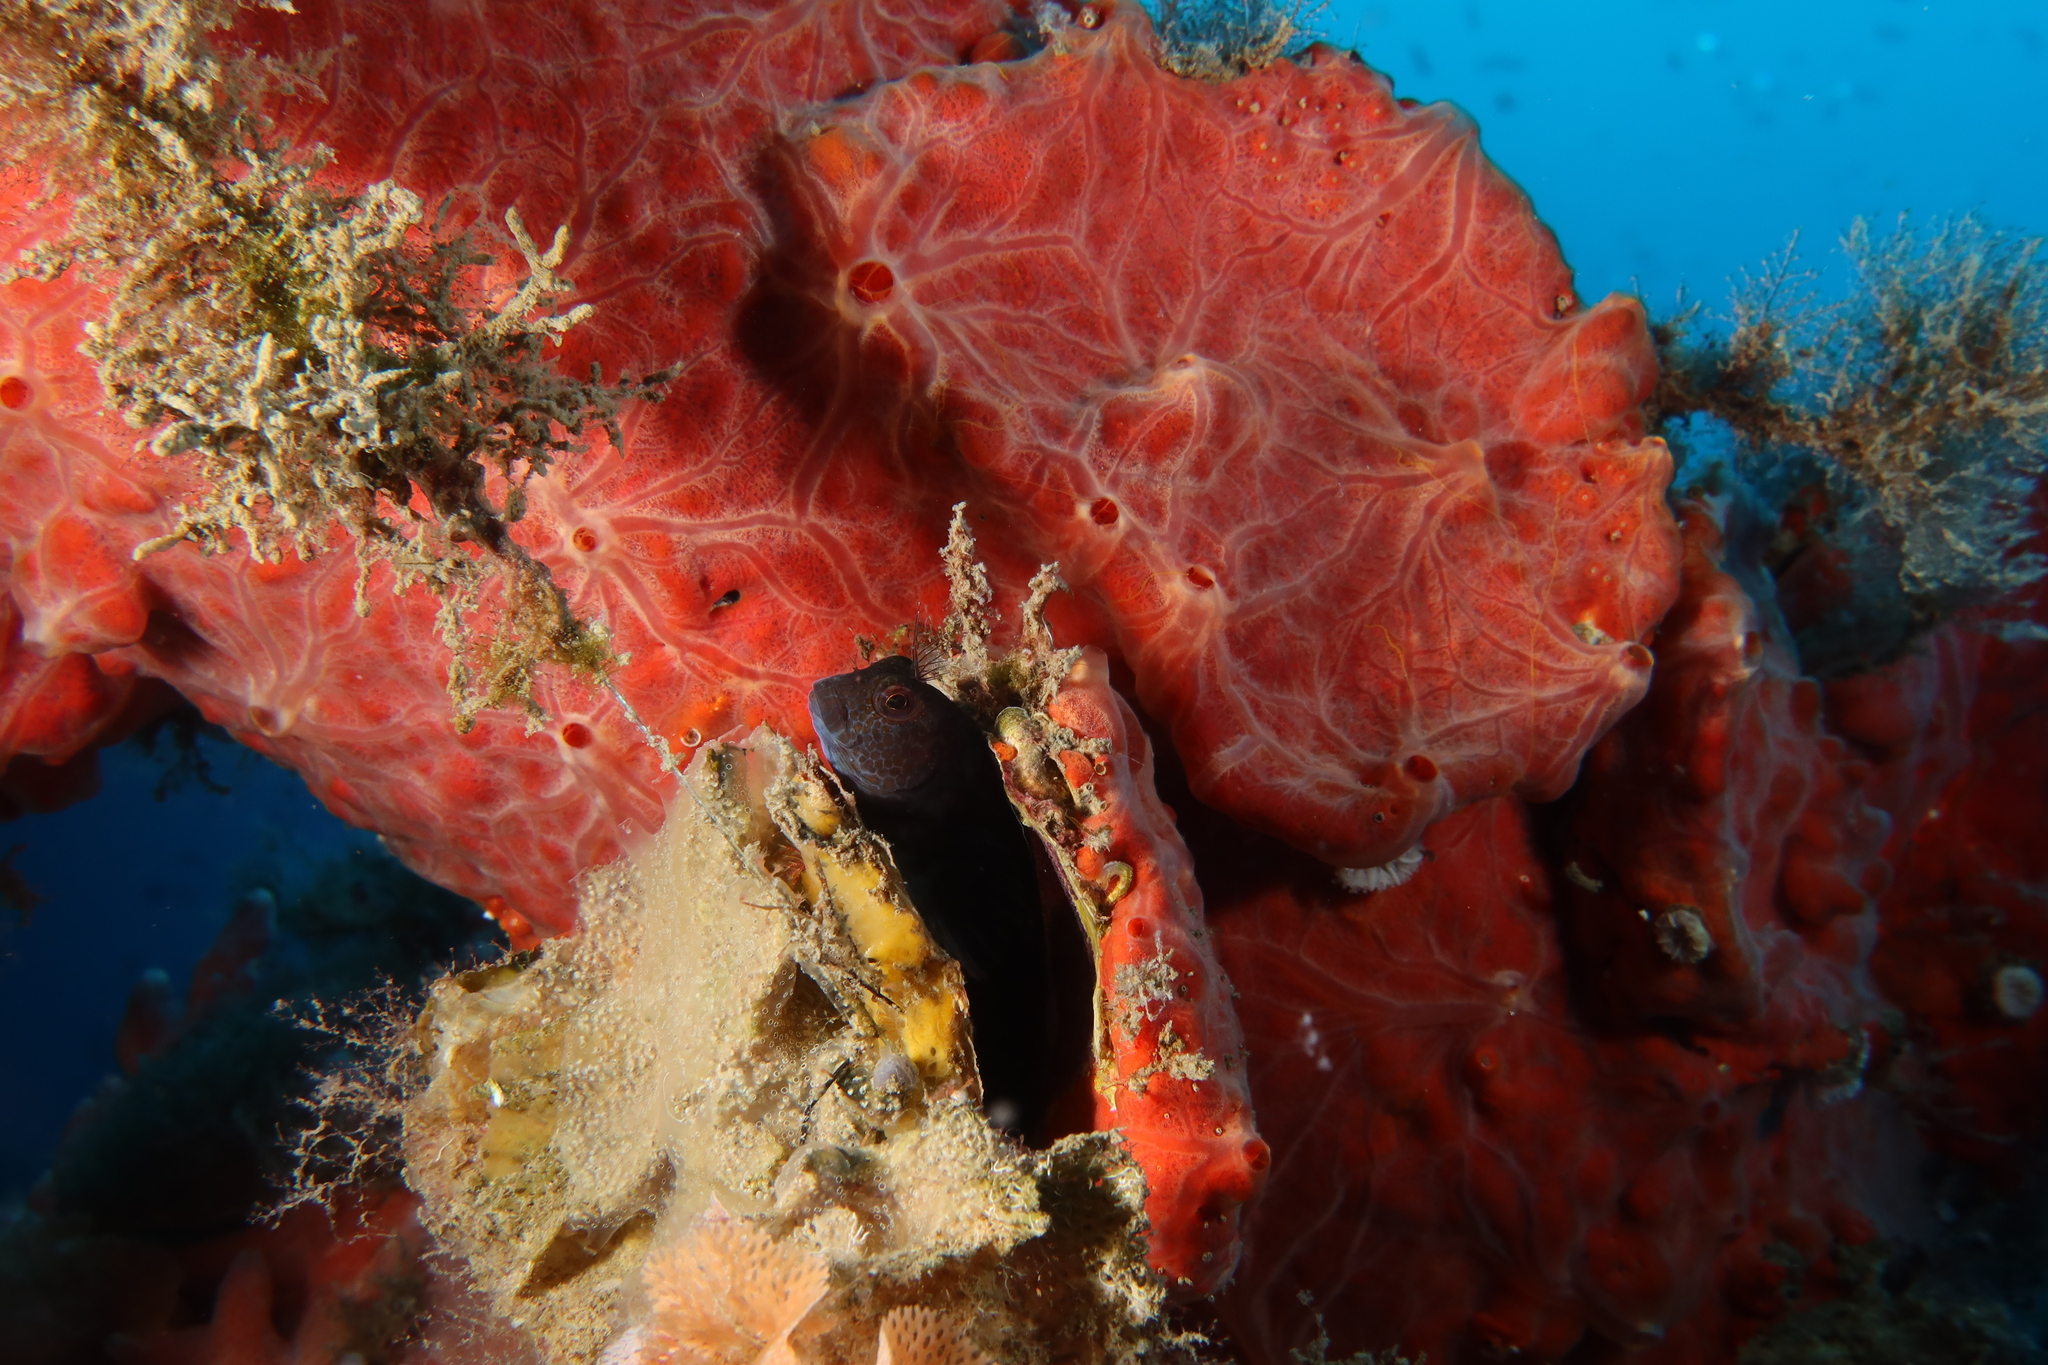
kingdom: Animalia
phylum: Chordata
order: Perciformes
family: Blenniidae
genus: Parablennius
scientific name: Parablennius pilicornis
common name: Ringneck blenny
